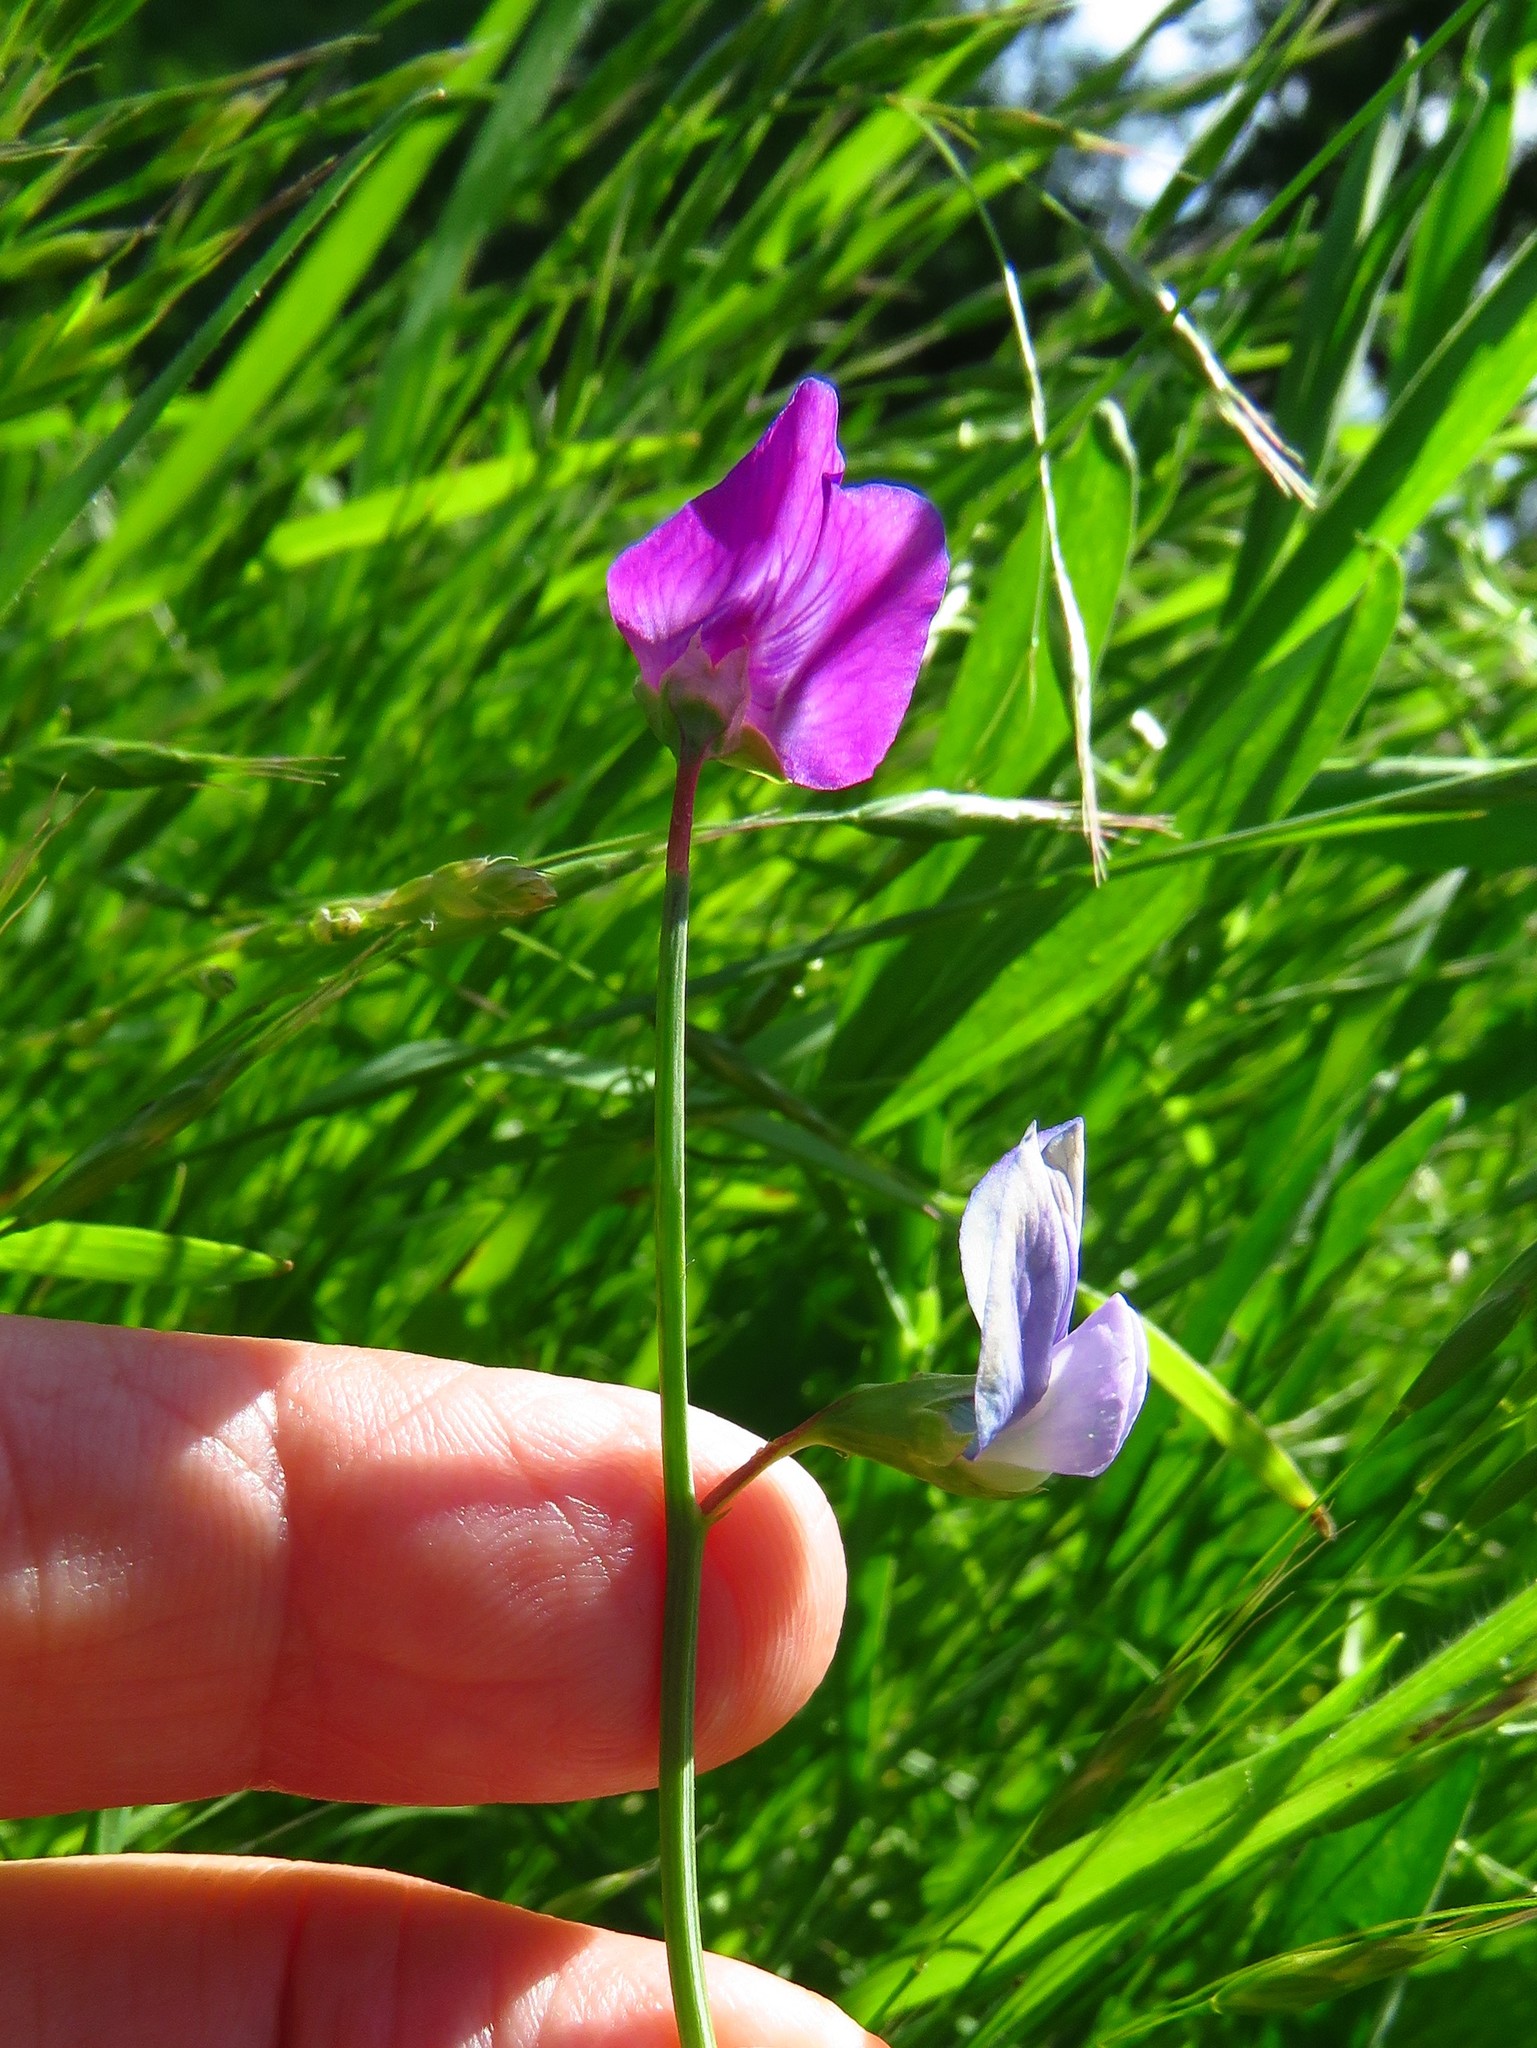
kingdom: Plantae
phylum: Tracheophyta
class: Magnoliopsida
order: Fabales
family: Fabaceae
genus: Lathyrus
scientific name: Lathyrus hirsutus
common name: Hairy vetchling
